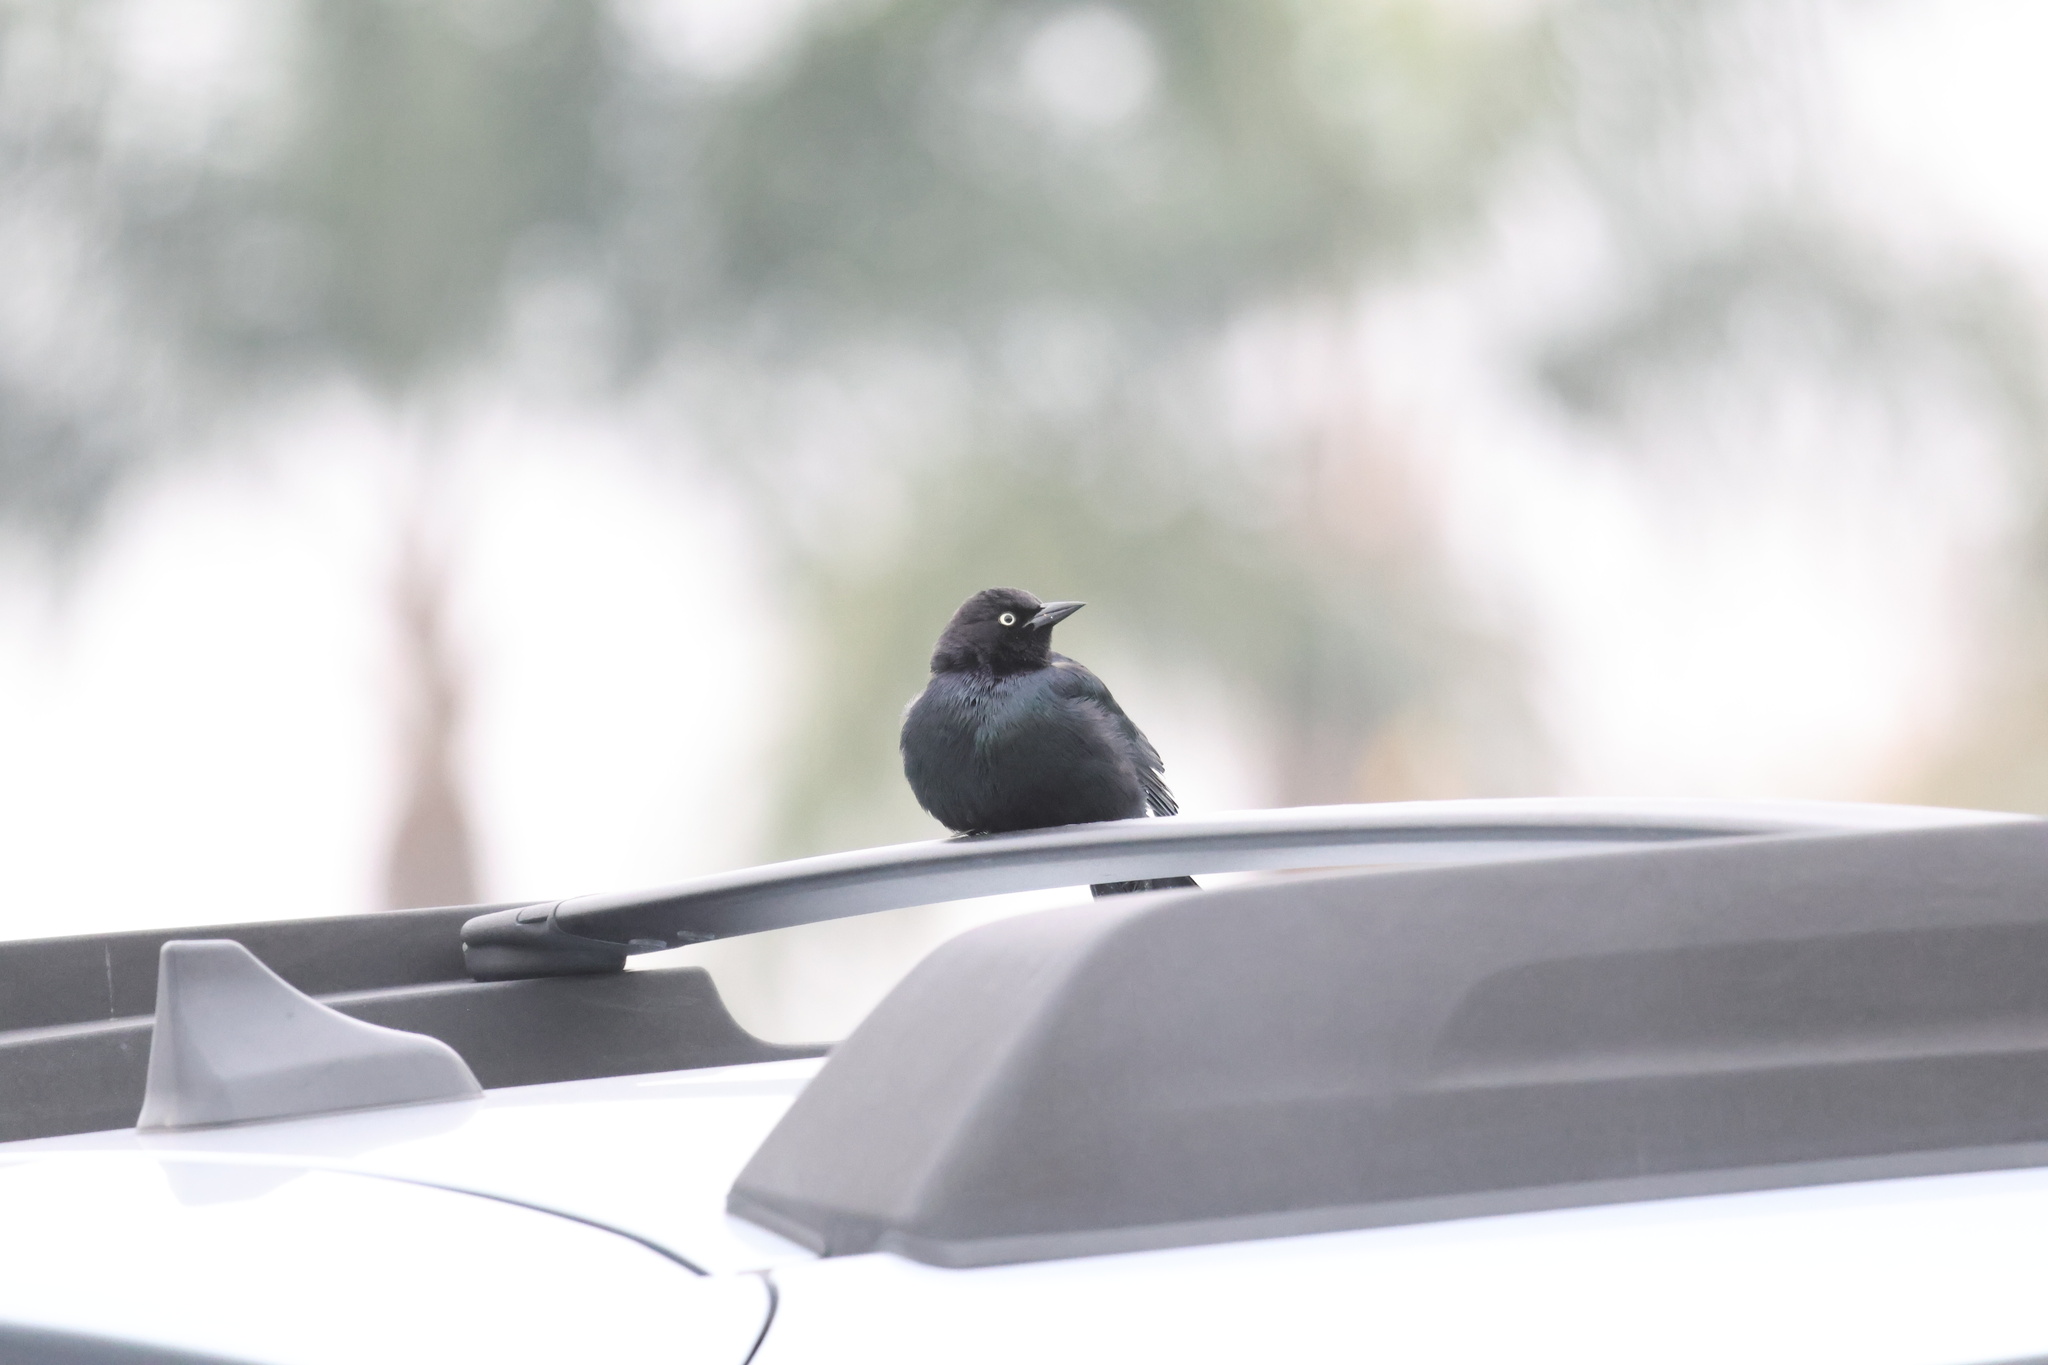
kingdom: Animalia
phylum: Chordata
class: Aves
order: Passeriformes
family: Icteridae
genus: Euphagus
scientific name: Euphagus cyanocephalus
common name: Brewer's blackbird
